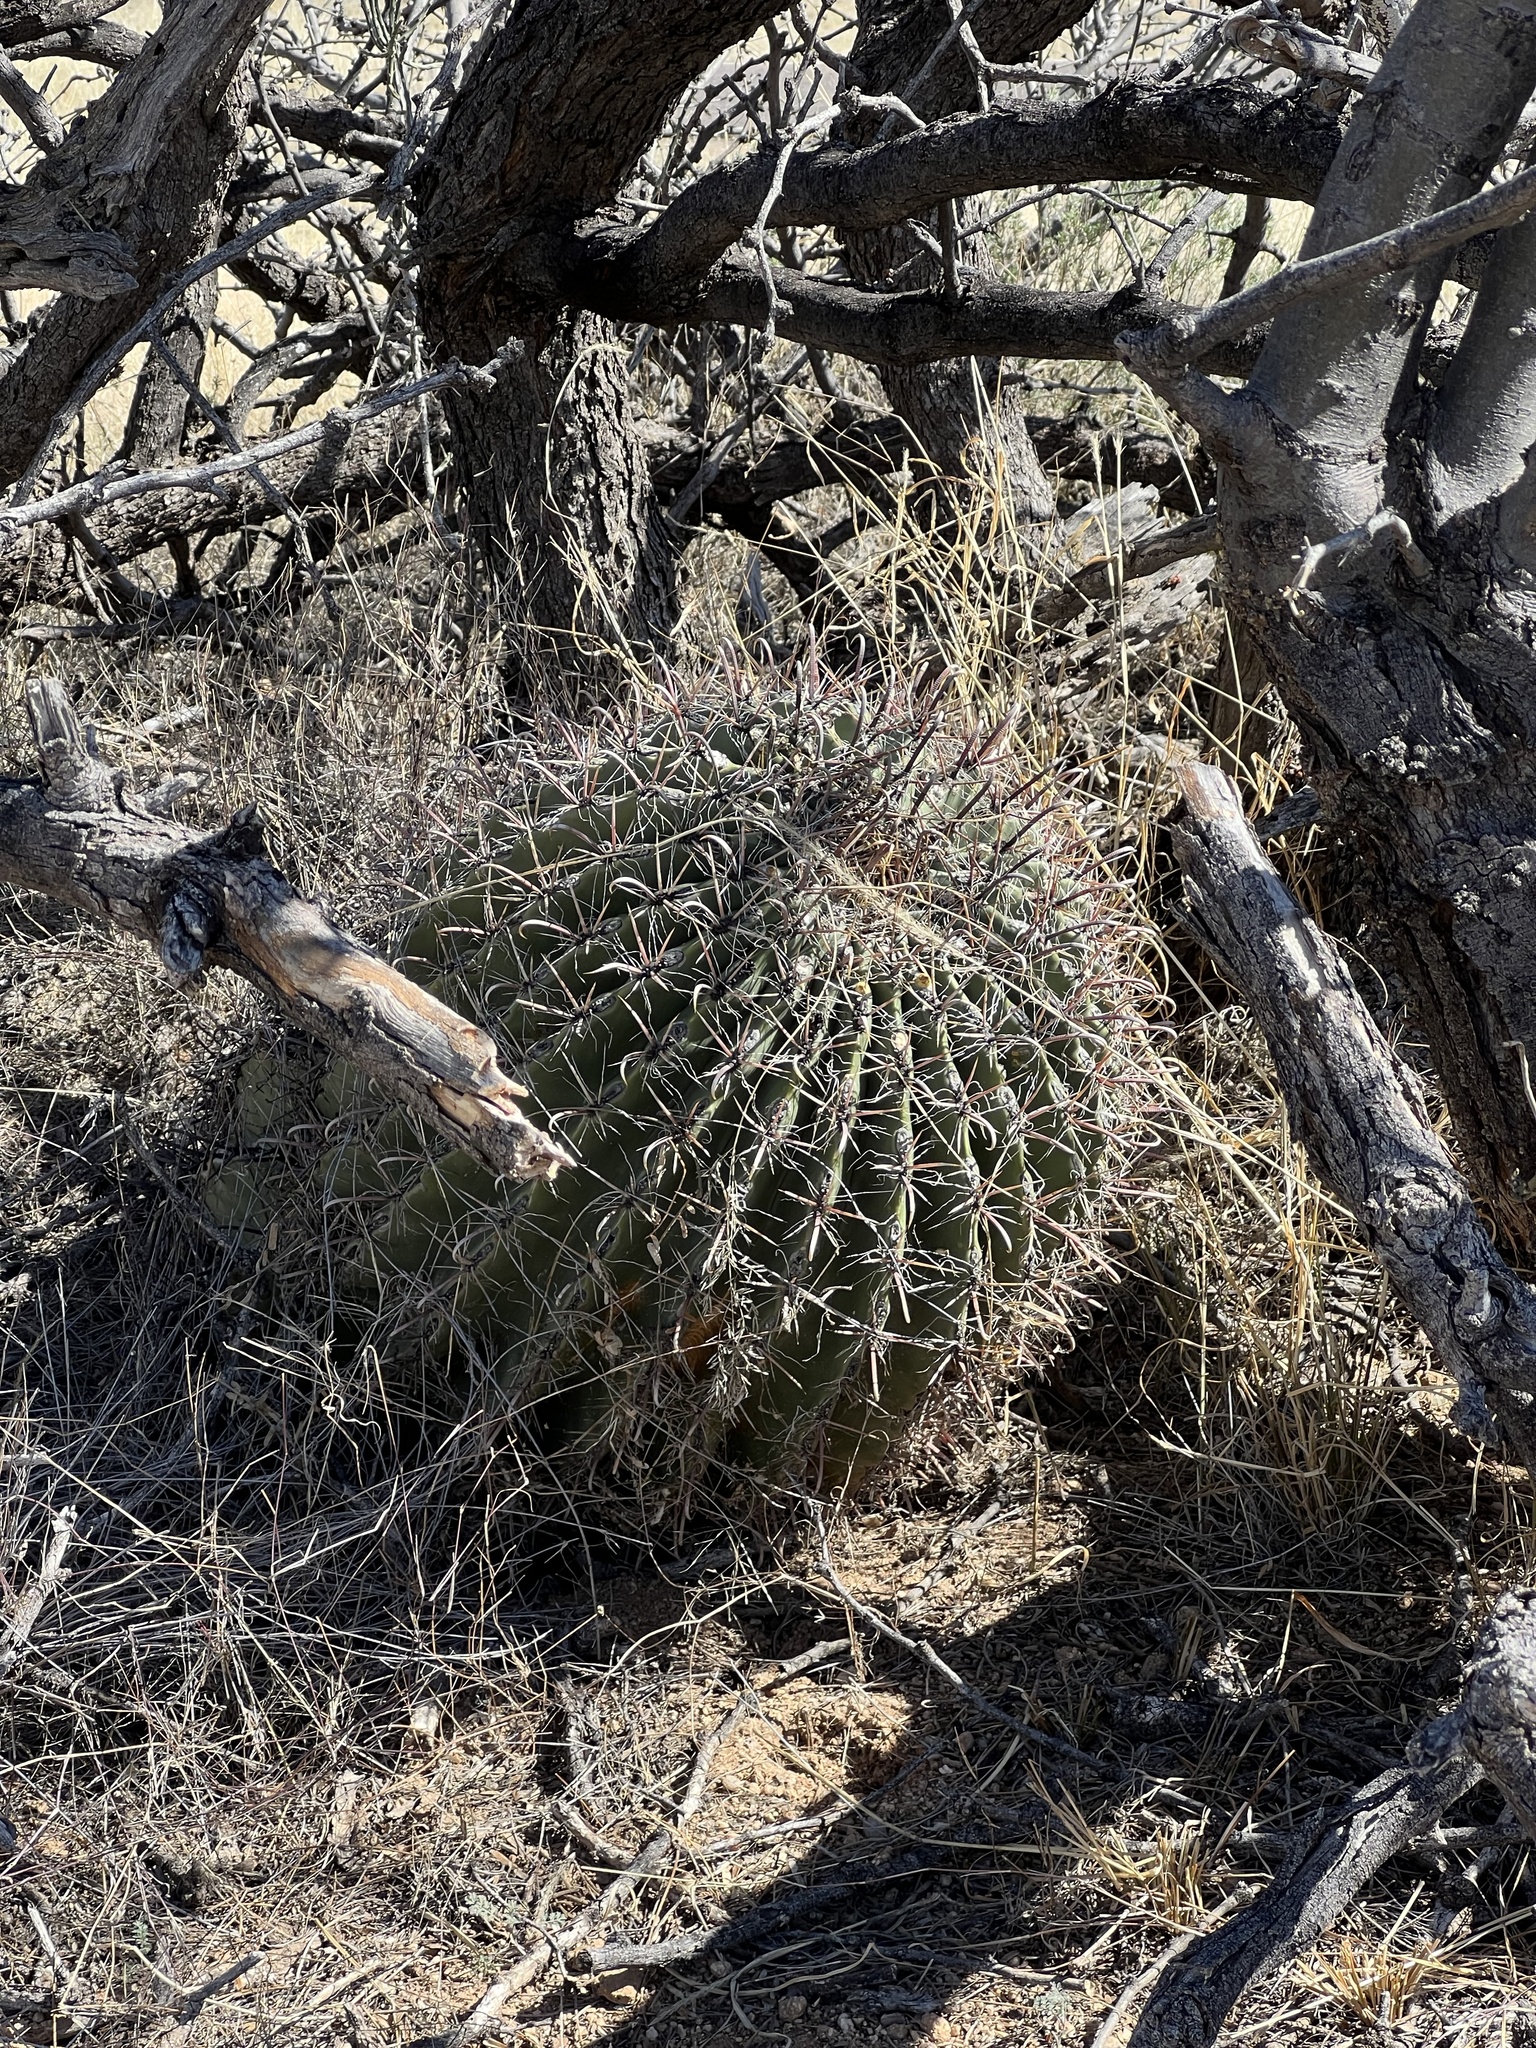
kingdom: Plantae
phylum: Tracheophyta
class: Magnoliopsida
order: Caryophyllales
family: Cactaceae
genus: Ferocactus
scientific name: Ferocactus wislizeni
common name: Candy barrel cactus
